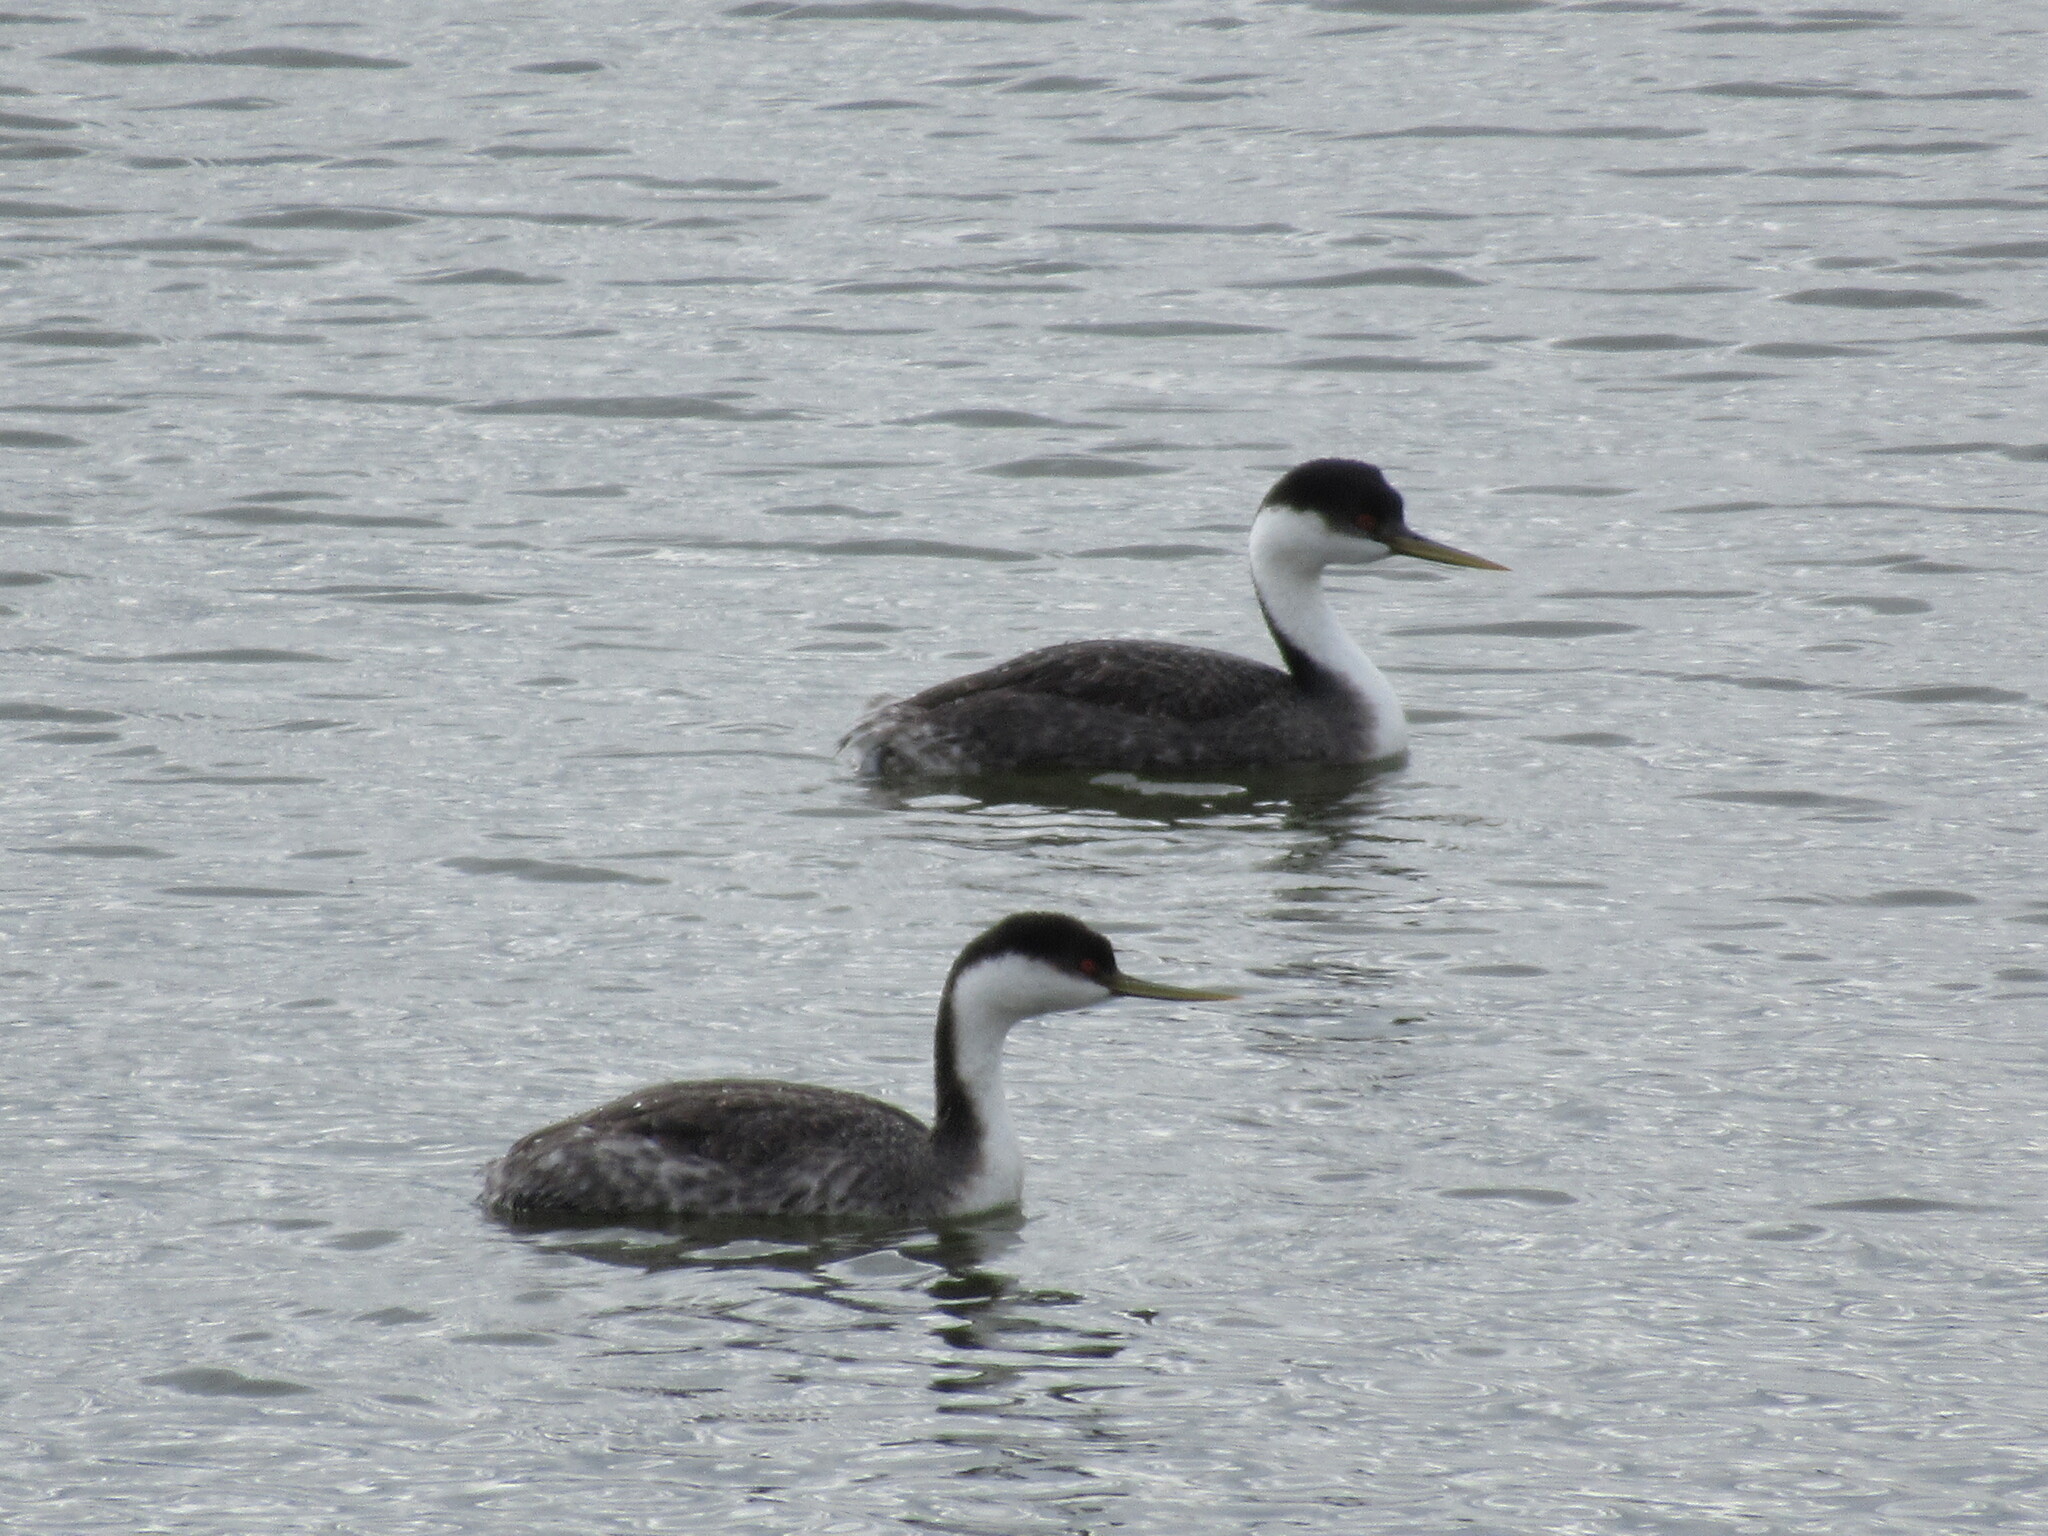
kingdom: Animalia
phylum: Chordata
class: Aves
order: Podicipediformes
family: Podicipedidae
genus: Aechmophorus
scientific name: Aechmophorus occidentalis
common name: Western grebe
